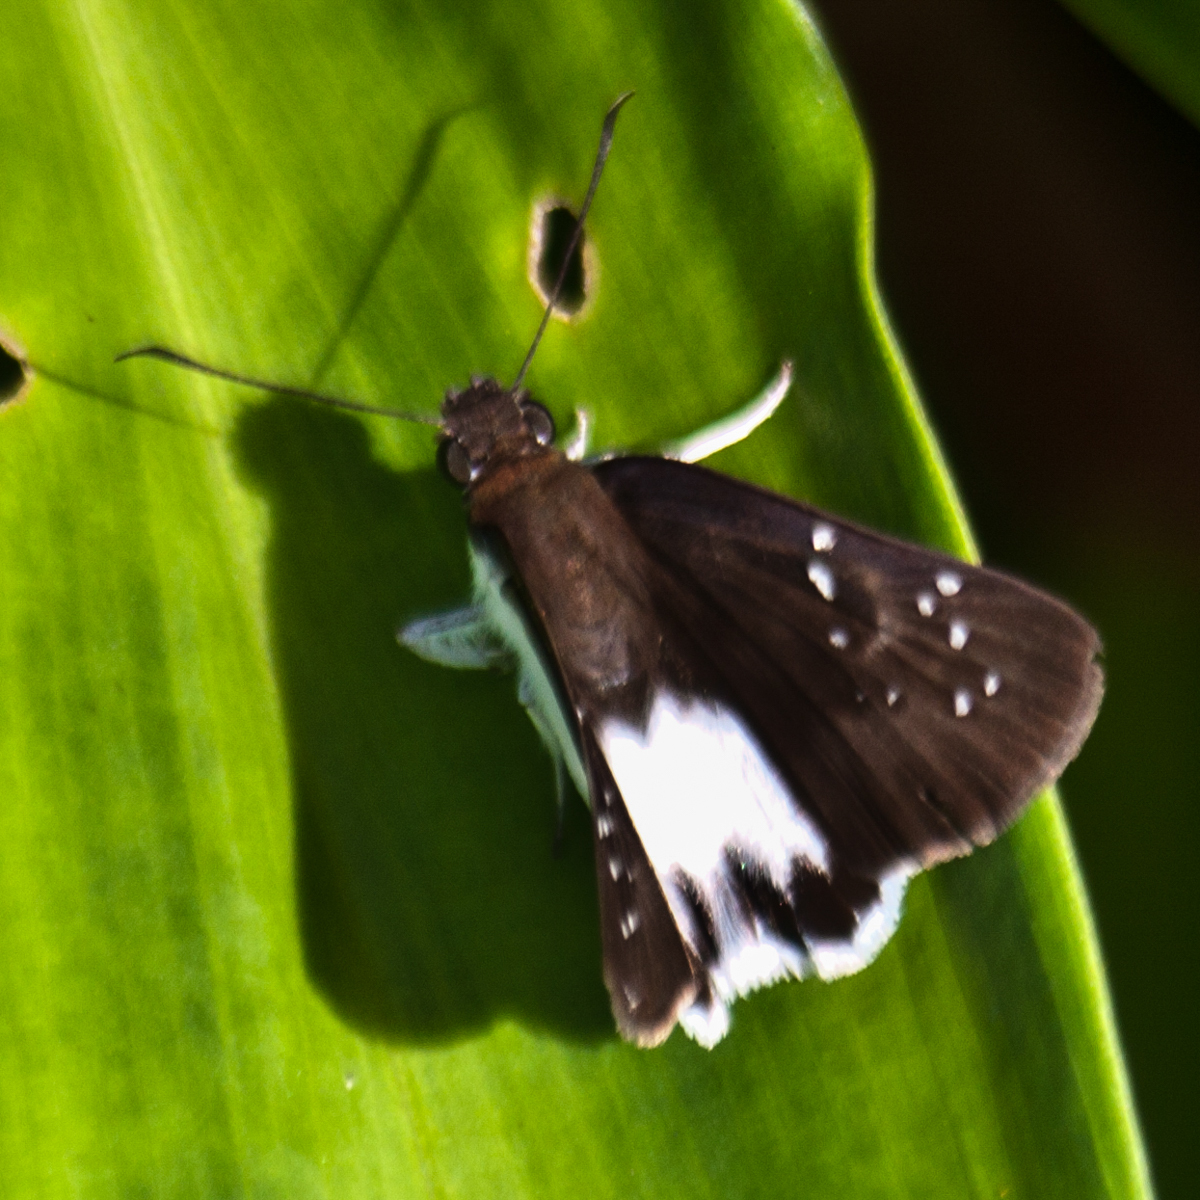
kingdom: Animalia
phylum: Arthropoda
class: Insecta
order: Lepidoptera
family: Hesperiidae
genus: Tagiades
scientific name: Tagiades litigiosa
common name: Water snow flat
